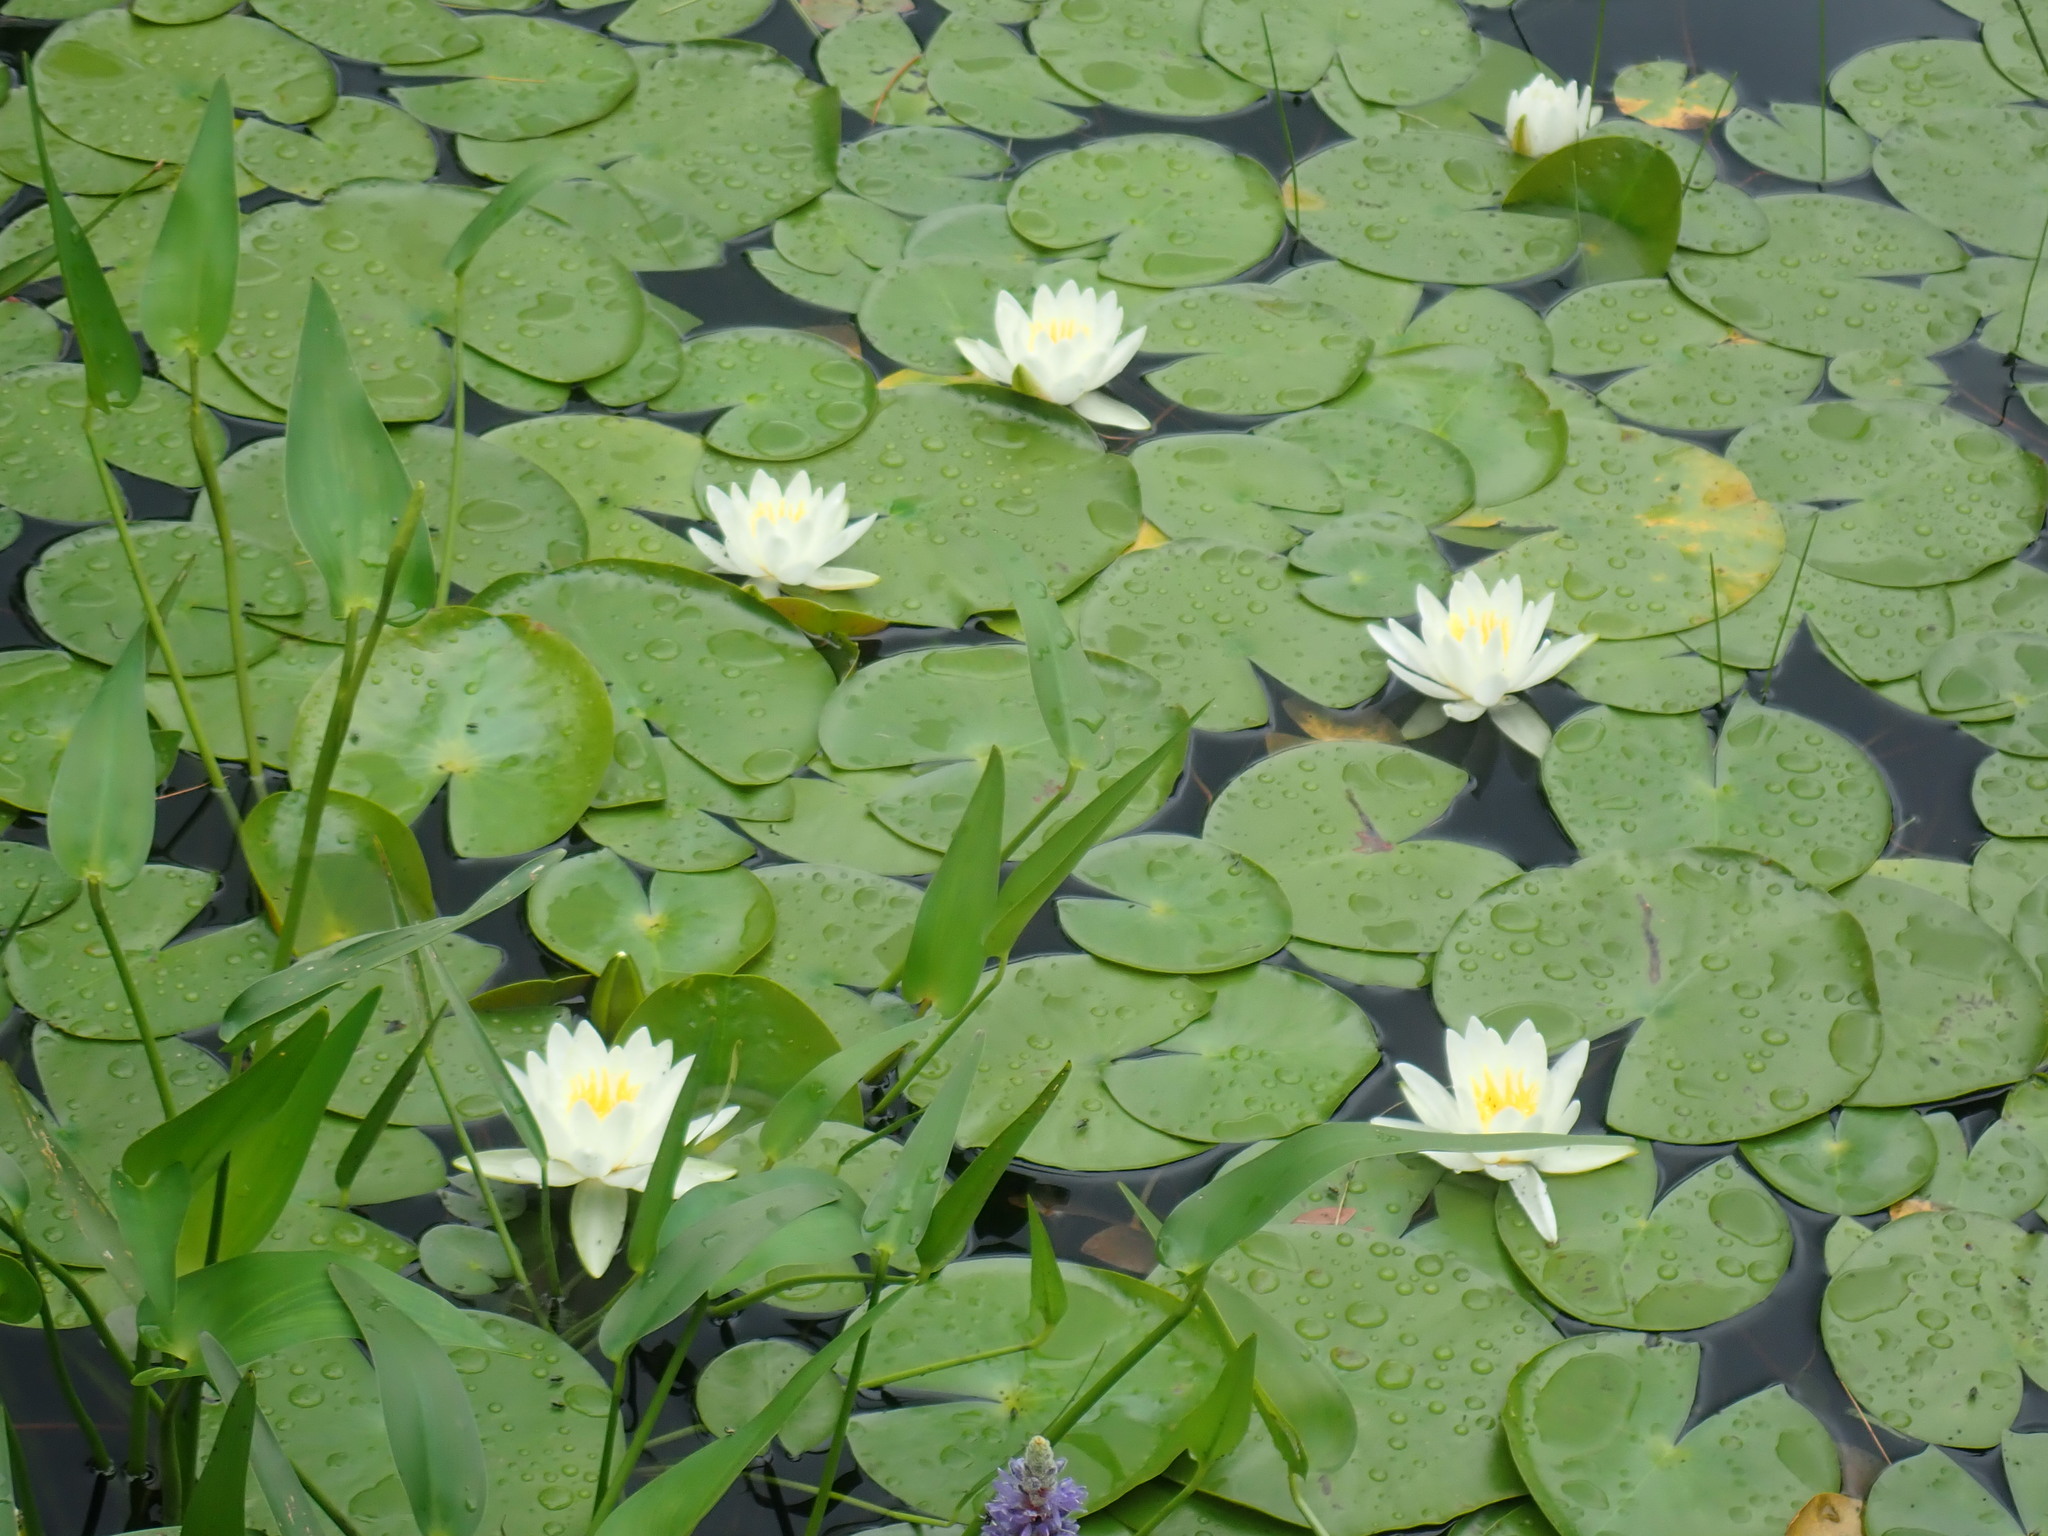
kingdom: Plantae
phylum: Tracheophyta
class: Magnoliopsida
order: Nymphaeales
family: Nymphaeaceae
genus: Nymphaea
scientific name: Nymphaea odorata
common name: Fragrant water-lily
